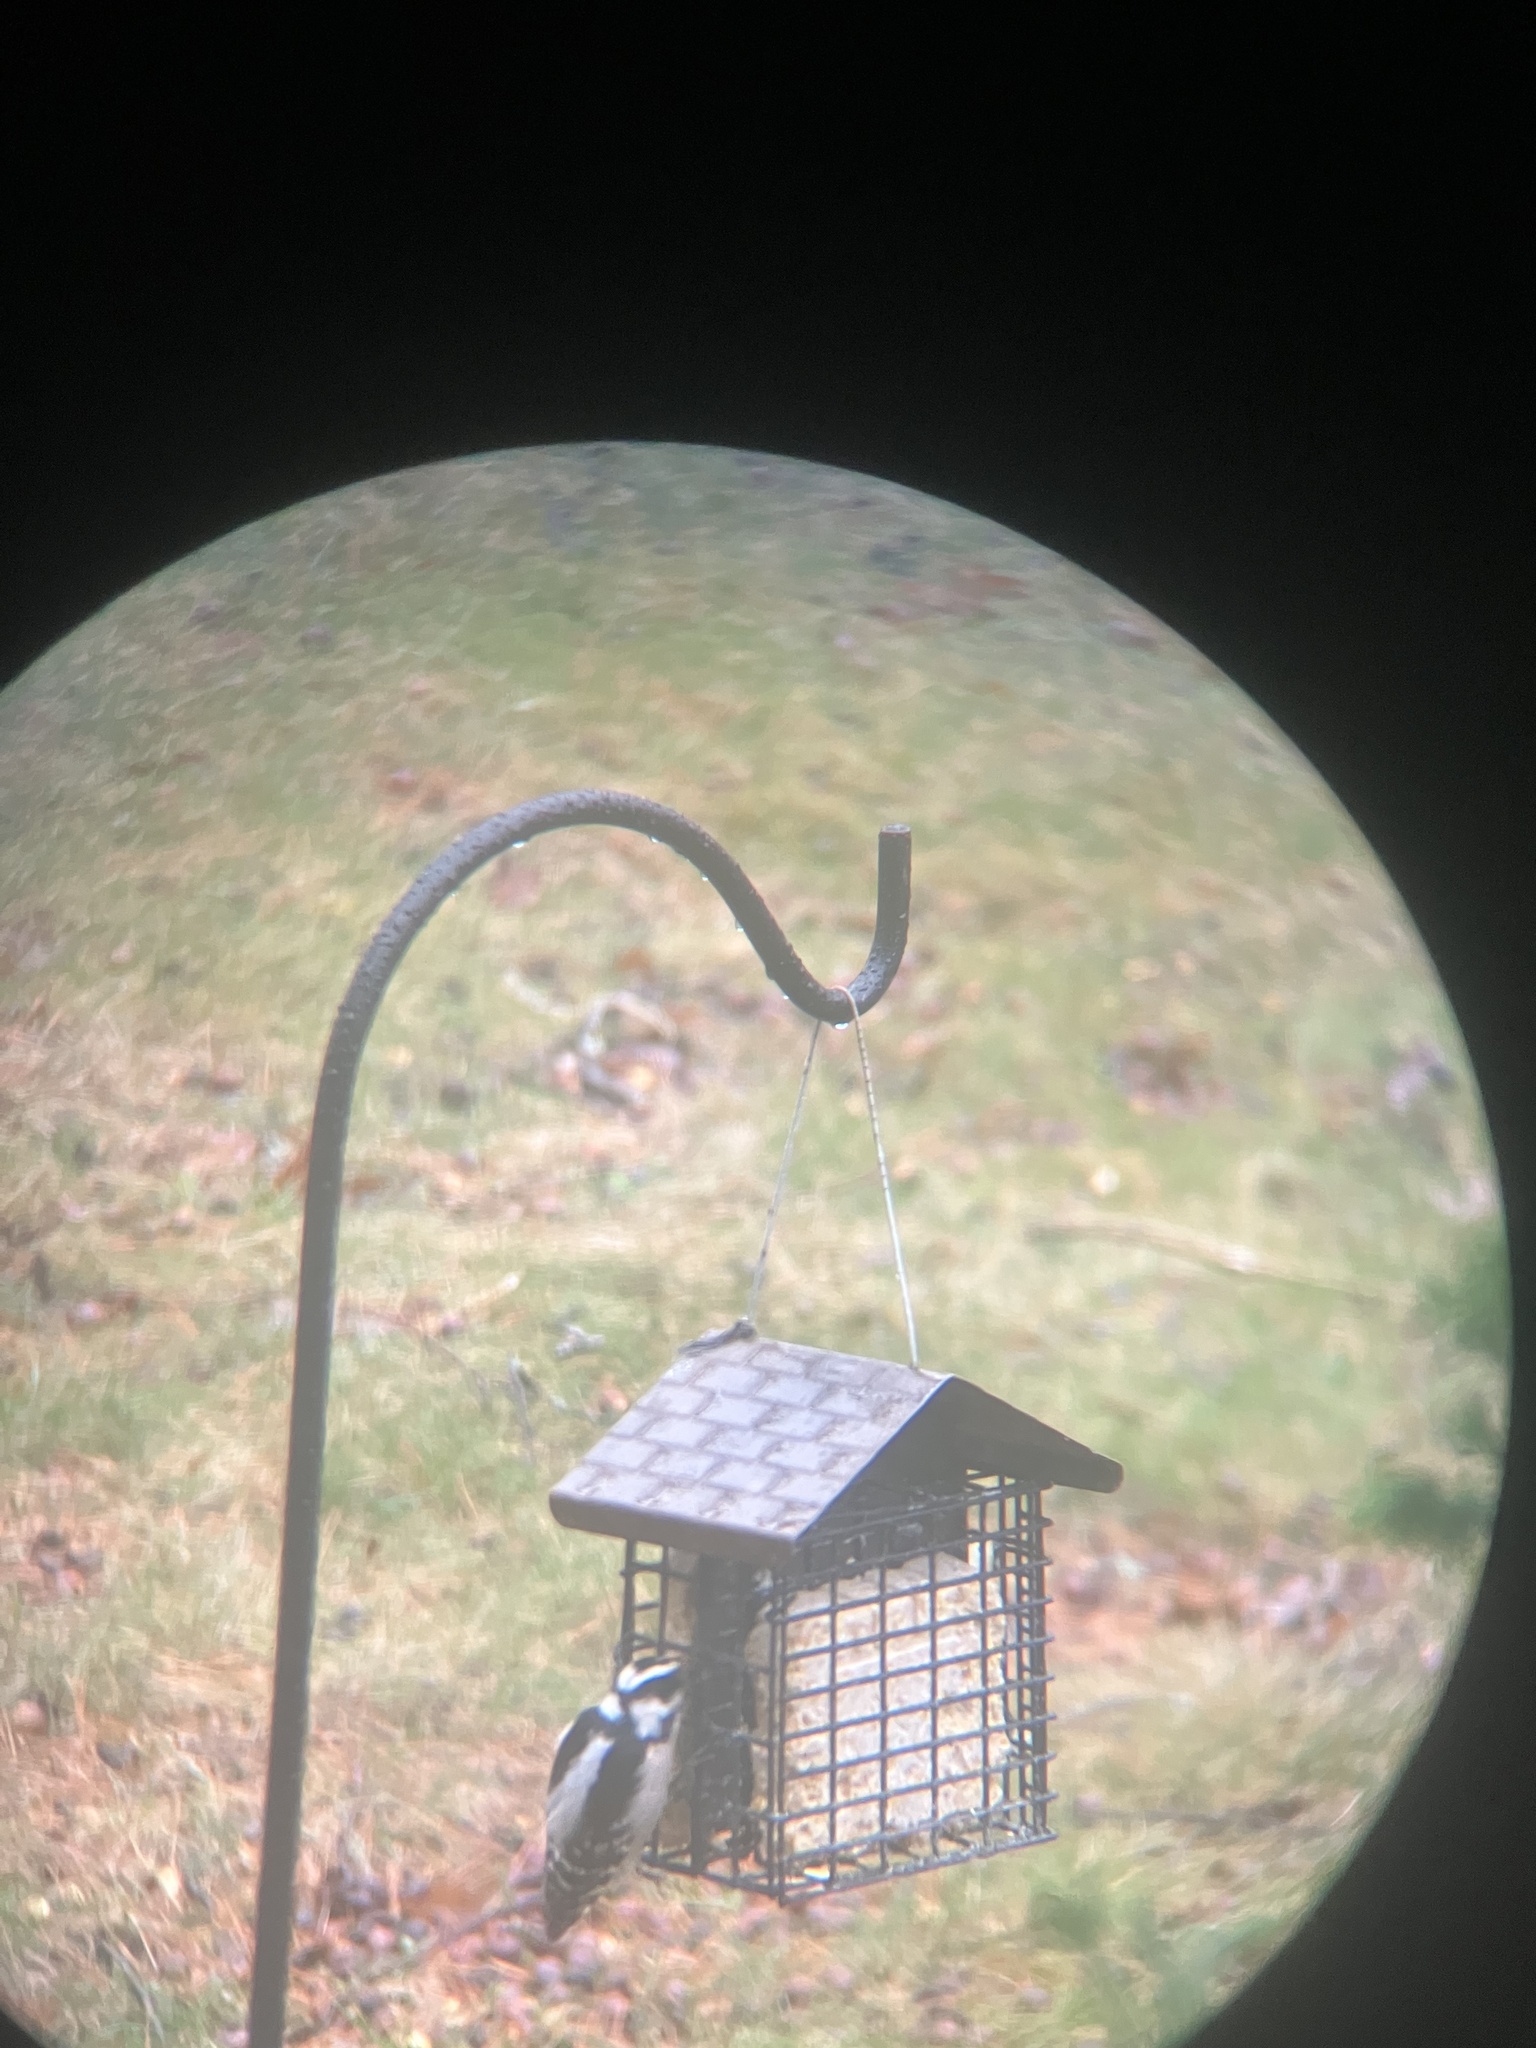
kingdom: Animalia
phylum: Chordata
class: Aves
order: Piciformes
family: Picidae
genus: Dryobates
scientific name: Dryobates pubescens
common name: Downy woodpecker
